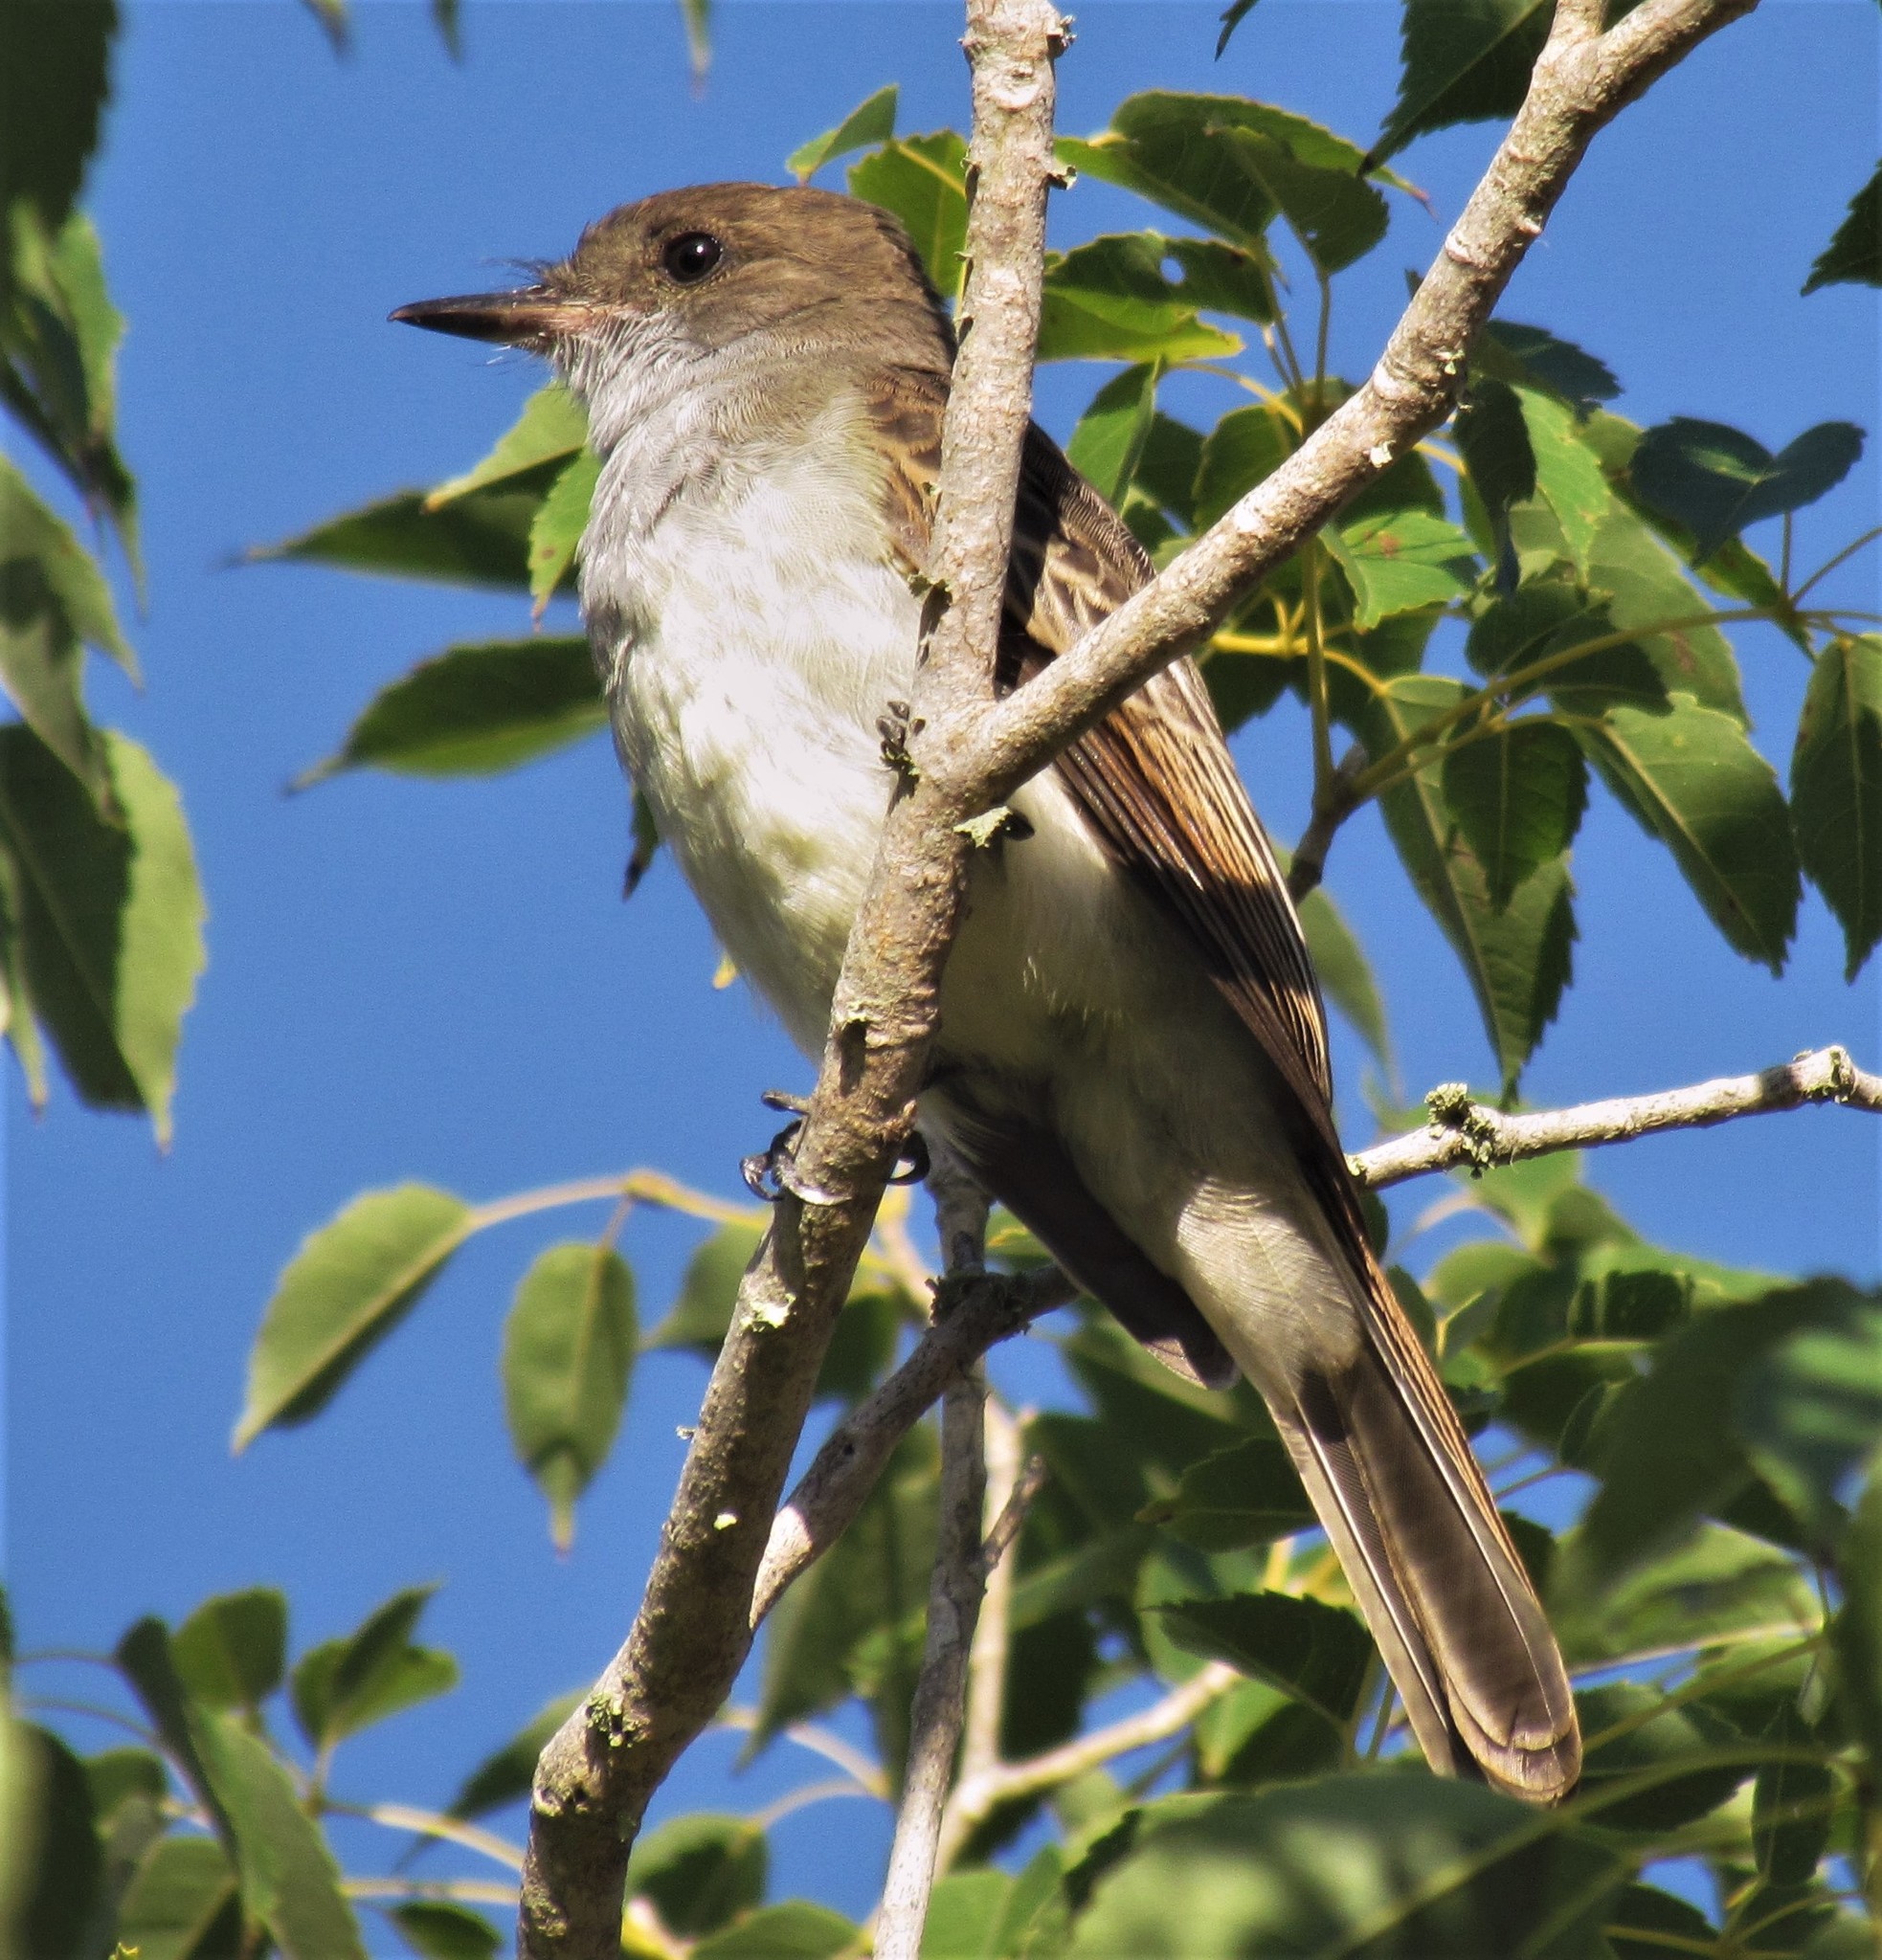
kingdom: Animalia
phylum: Chordata
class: Aves
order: Passeriformes
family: Tyrannidae
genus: Myiarchus
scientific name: Myiarchus swainsoni
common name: Swainson's flycatcher
